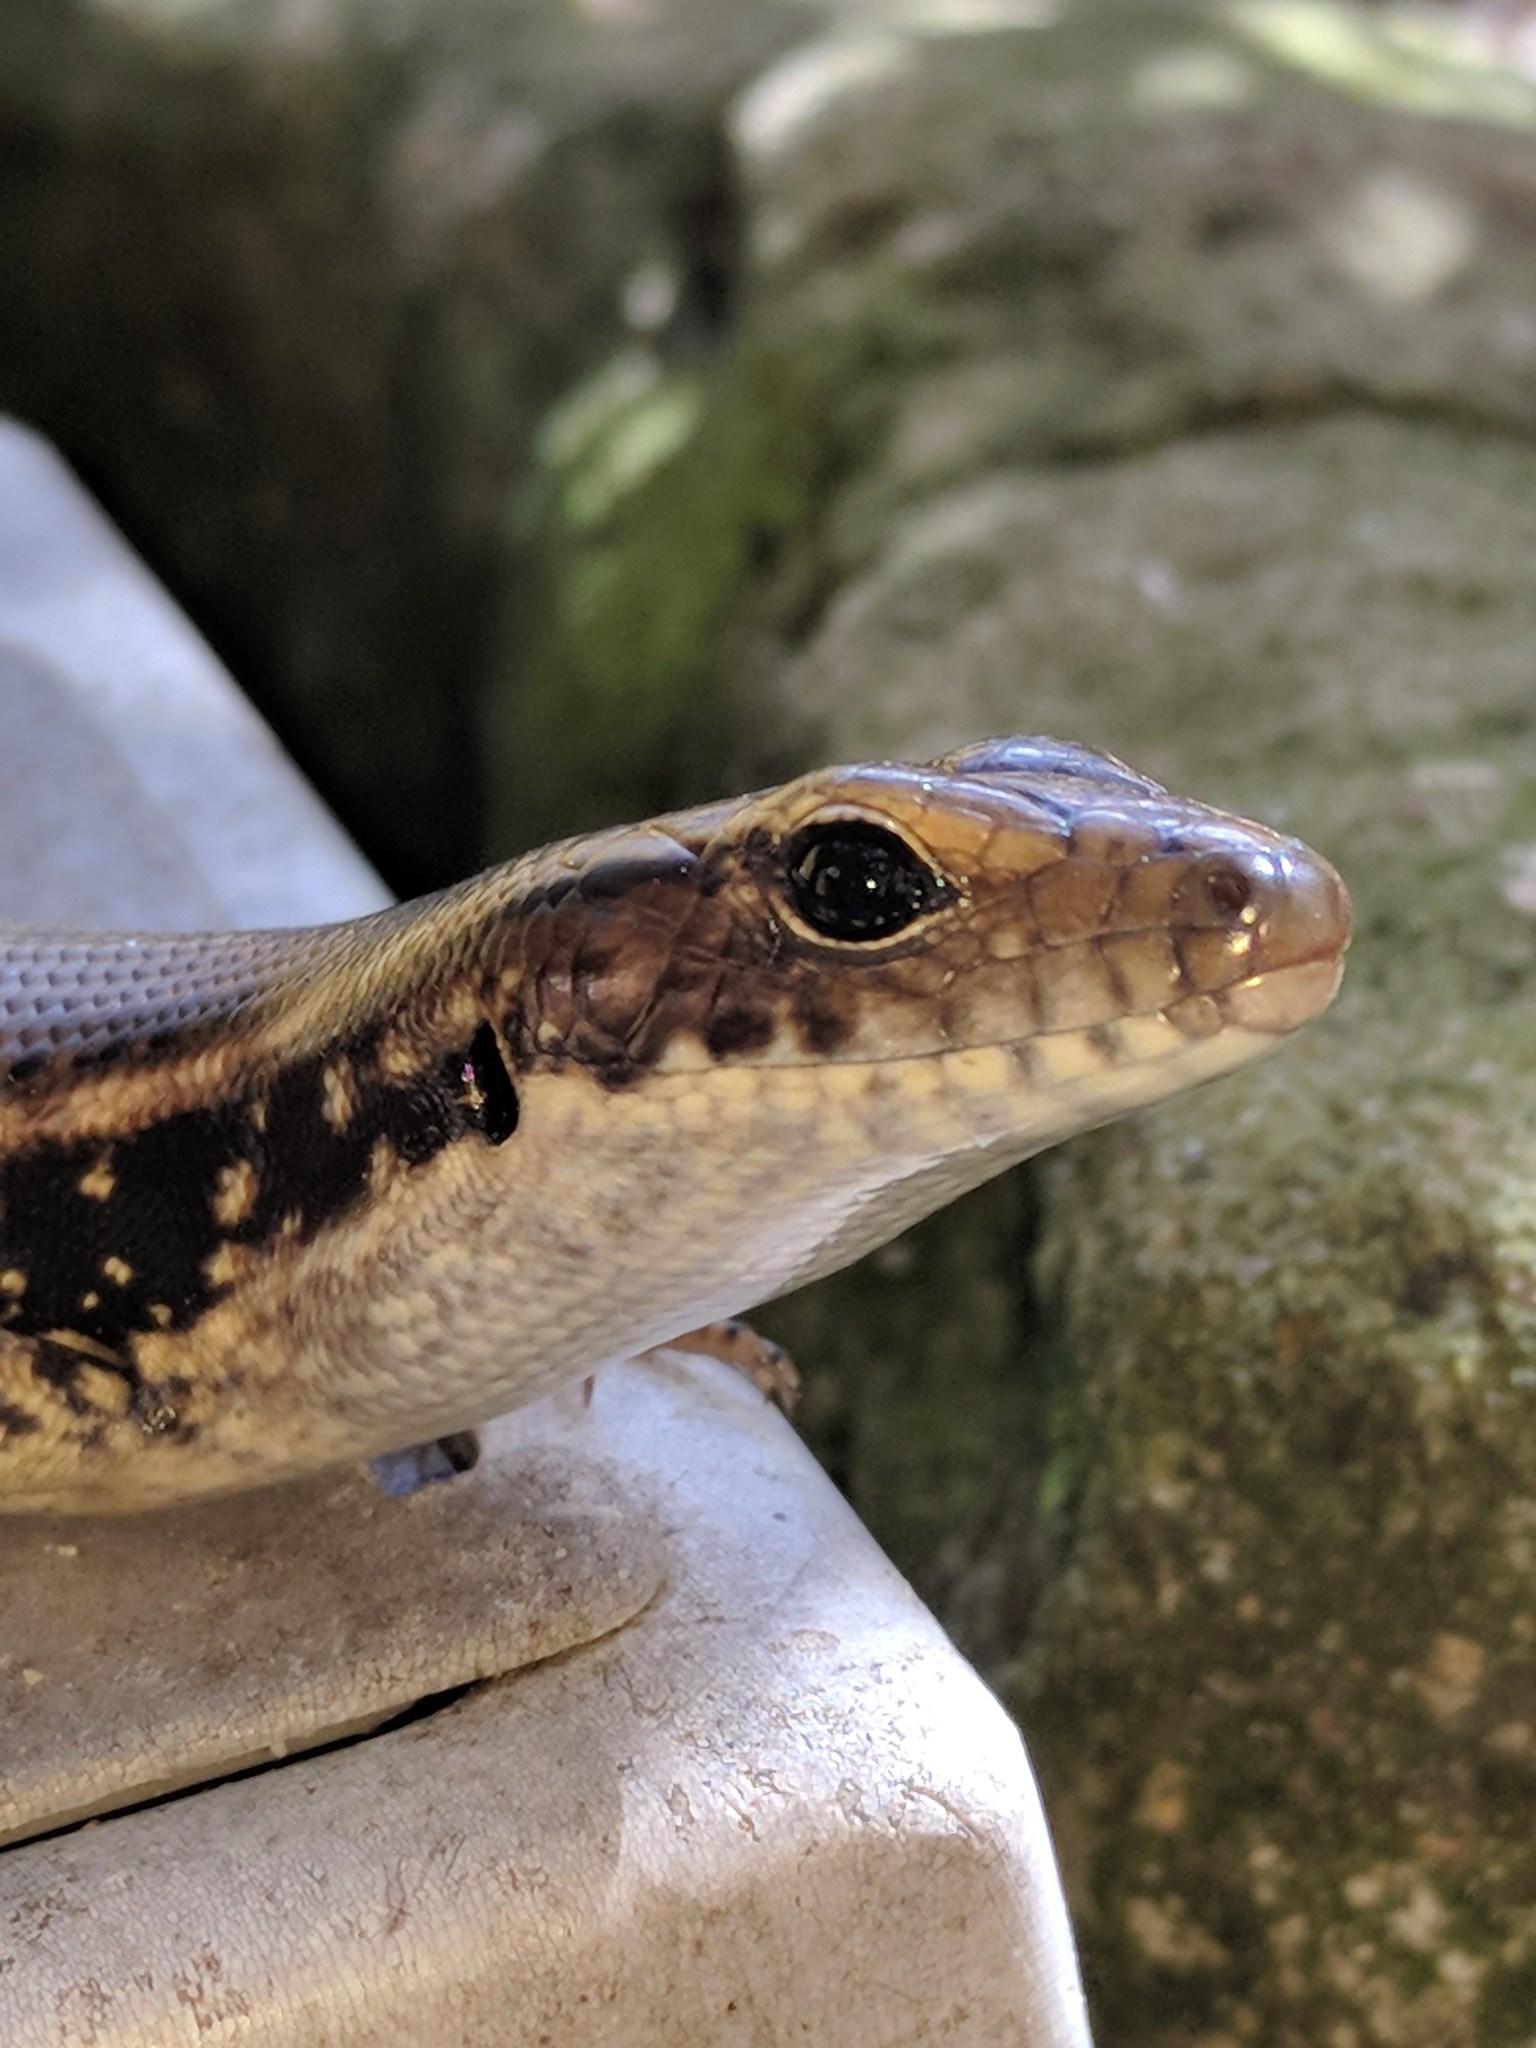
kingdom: Animalia
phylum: Chordata
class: Squamata
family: Scincidae
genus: Eulamprus
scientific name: Eulamprus quoyii
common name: Eastern water skink
